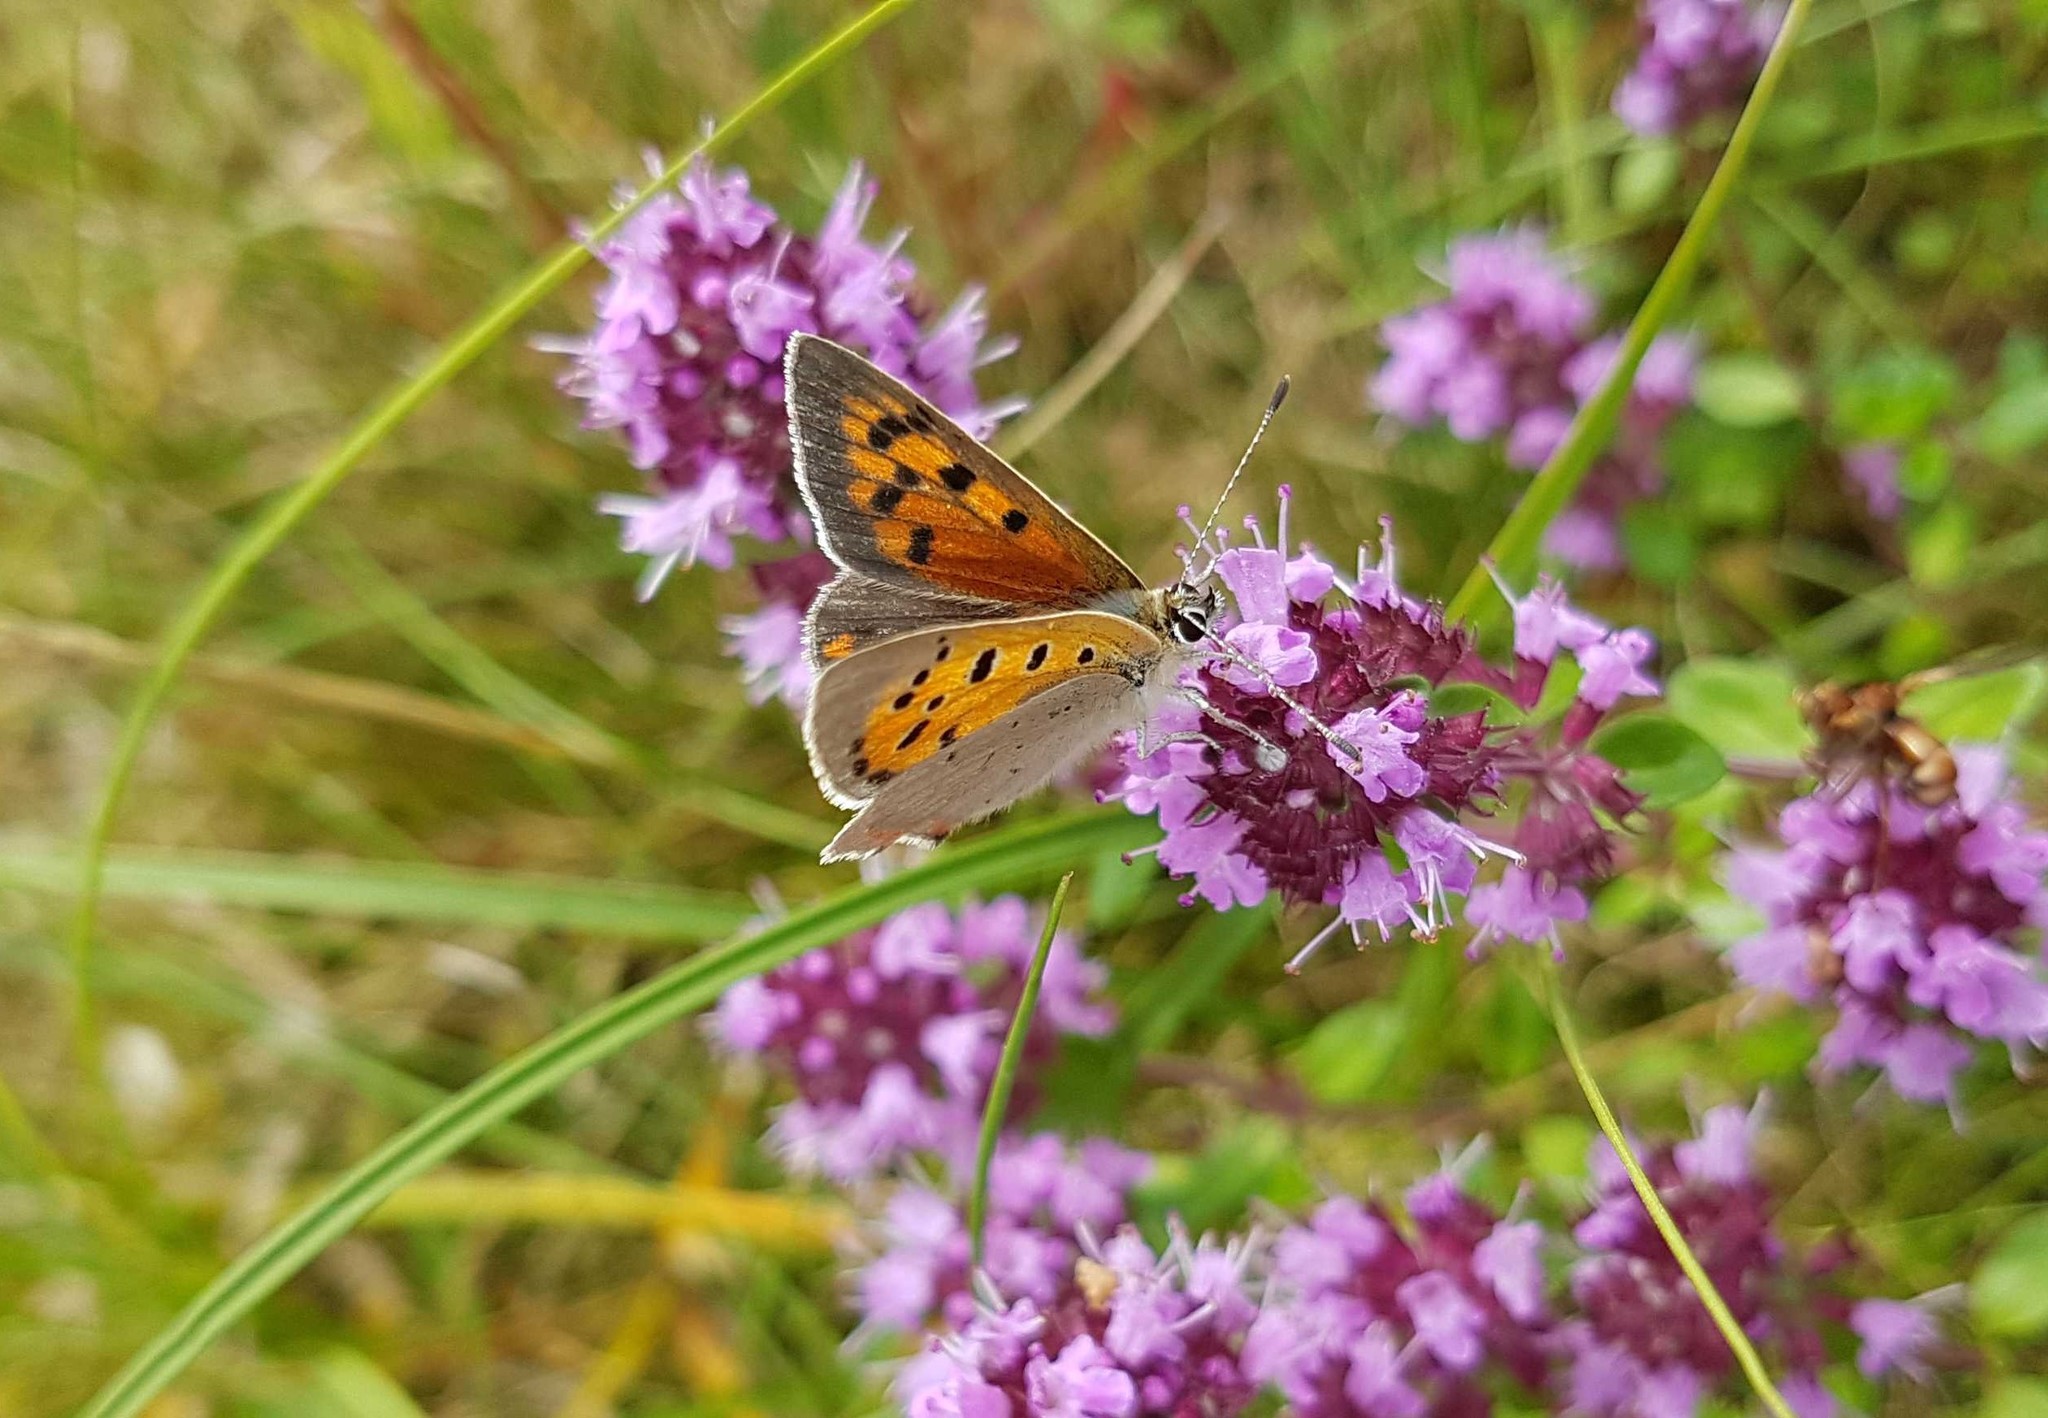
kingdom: Animalia
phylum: Arthropoda
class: Insecta
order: Lepidoptera
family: Lycaenidae
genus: Lycaena
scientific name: Lycaena phlaeas
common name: Small copper
